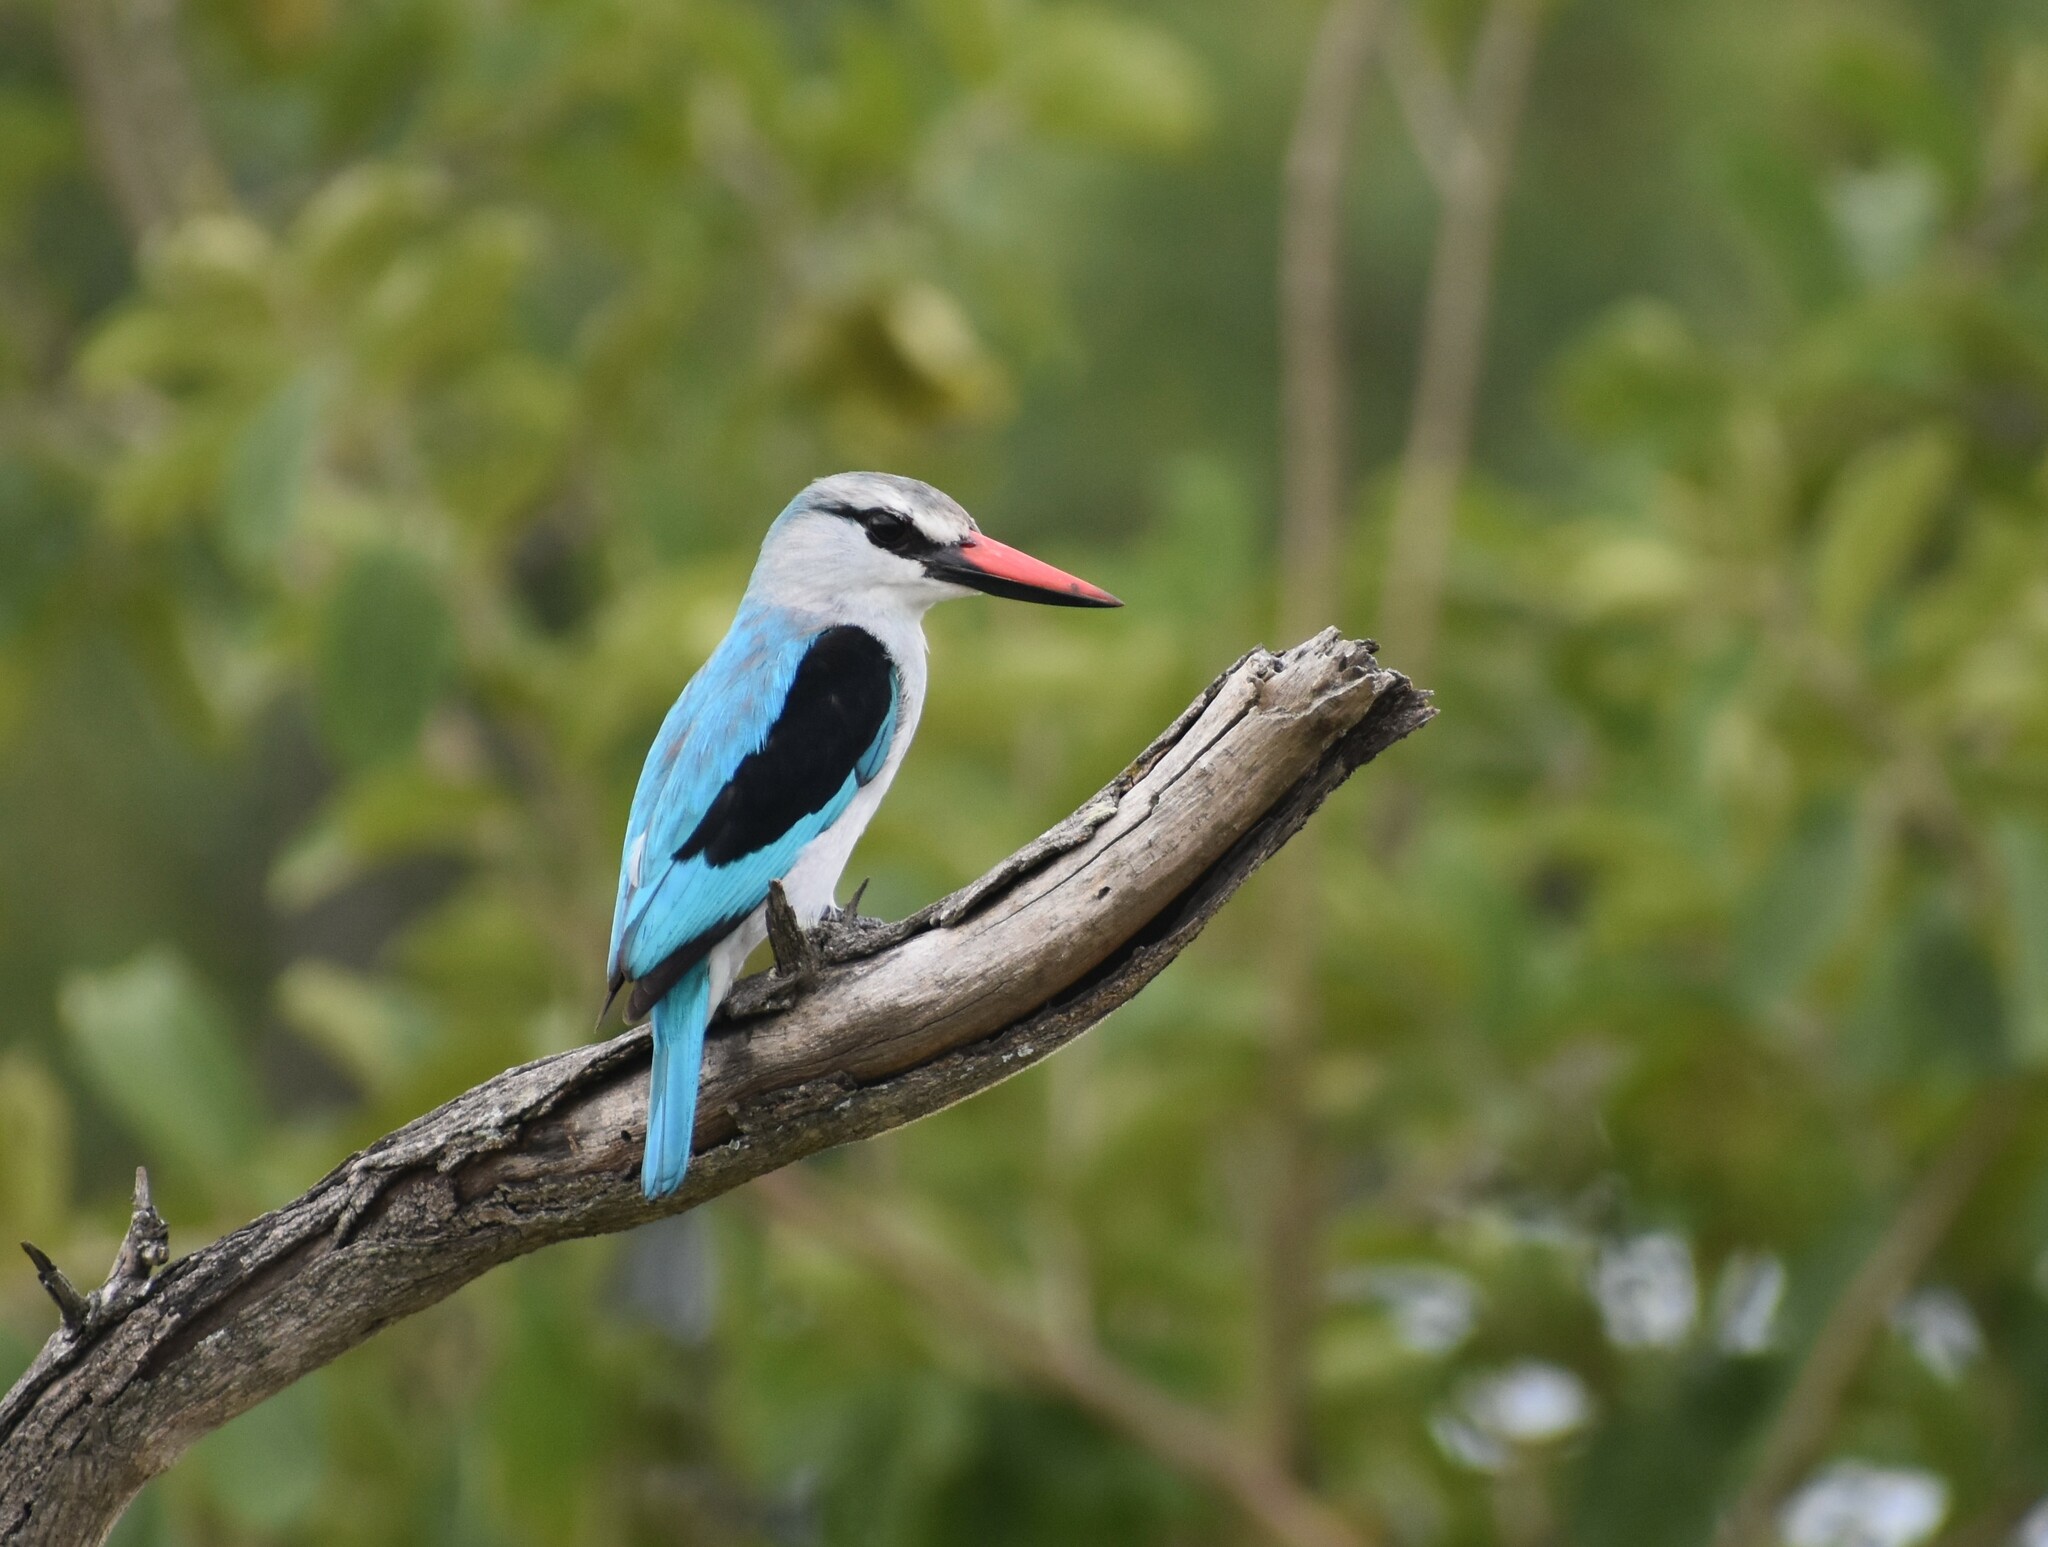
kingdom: Animalia
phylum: Chordata
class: Aves
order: Coraciiformes
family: Alcedinidae
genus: Halcyon
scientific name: Halcyon senegalensis
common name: Woodland kingfisher
